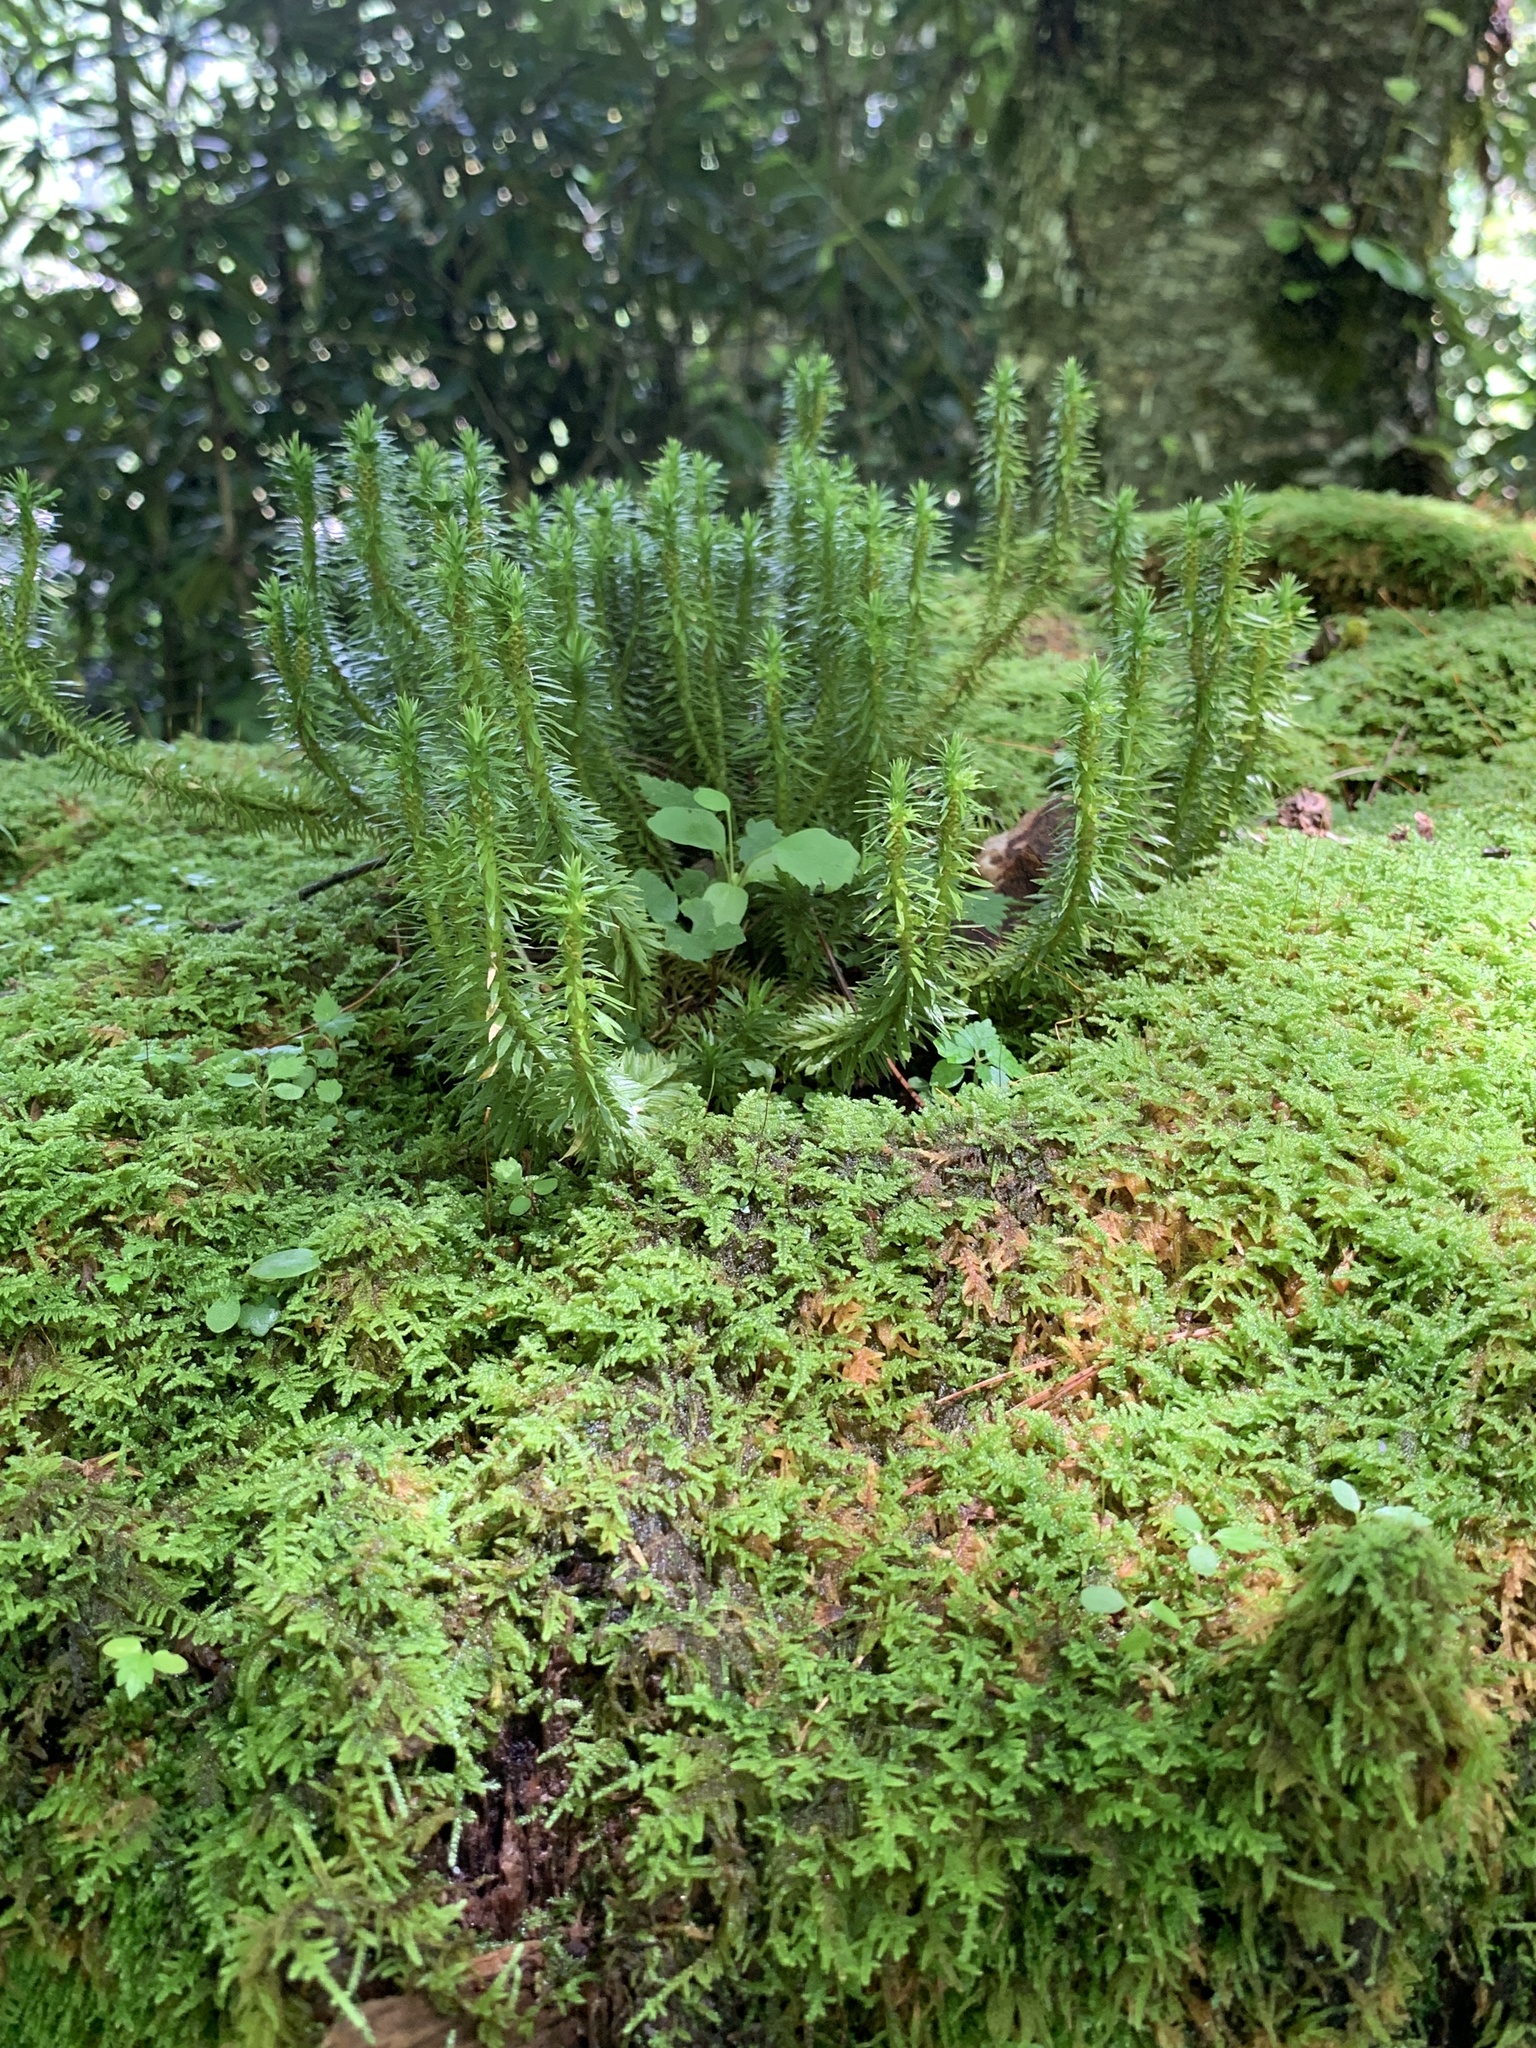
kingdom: Plantae
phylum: Tracheophyta
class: Lycopodiopsida
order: Lycopodiales
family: Lycopodiaceae
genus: Huperzia
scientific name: Huperzia lucidula
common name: Shining clubmoss
